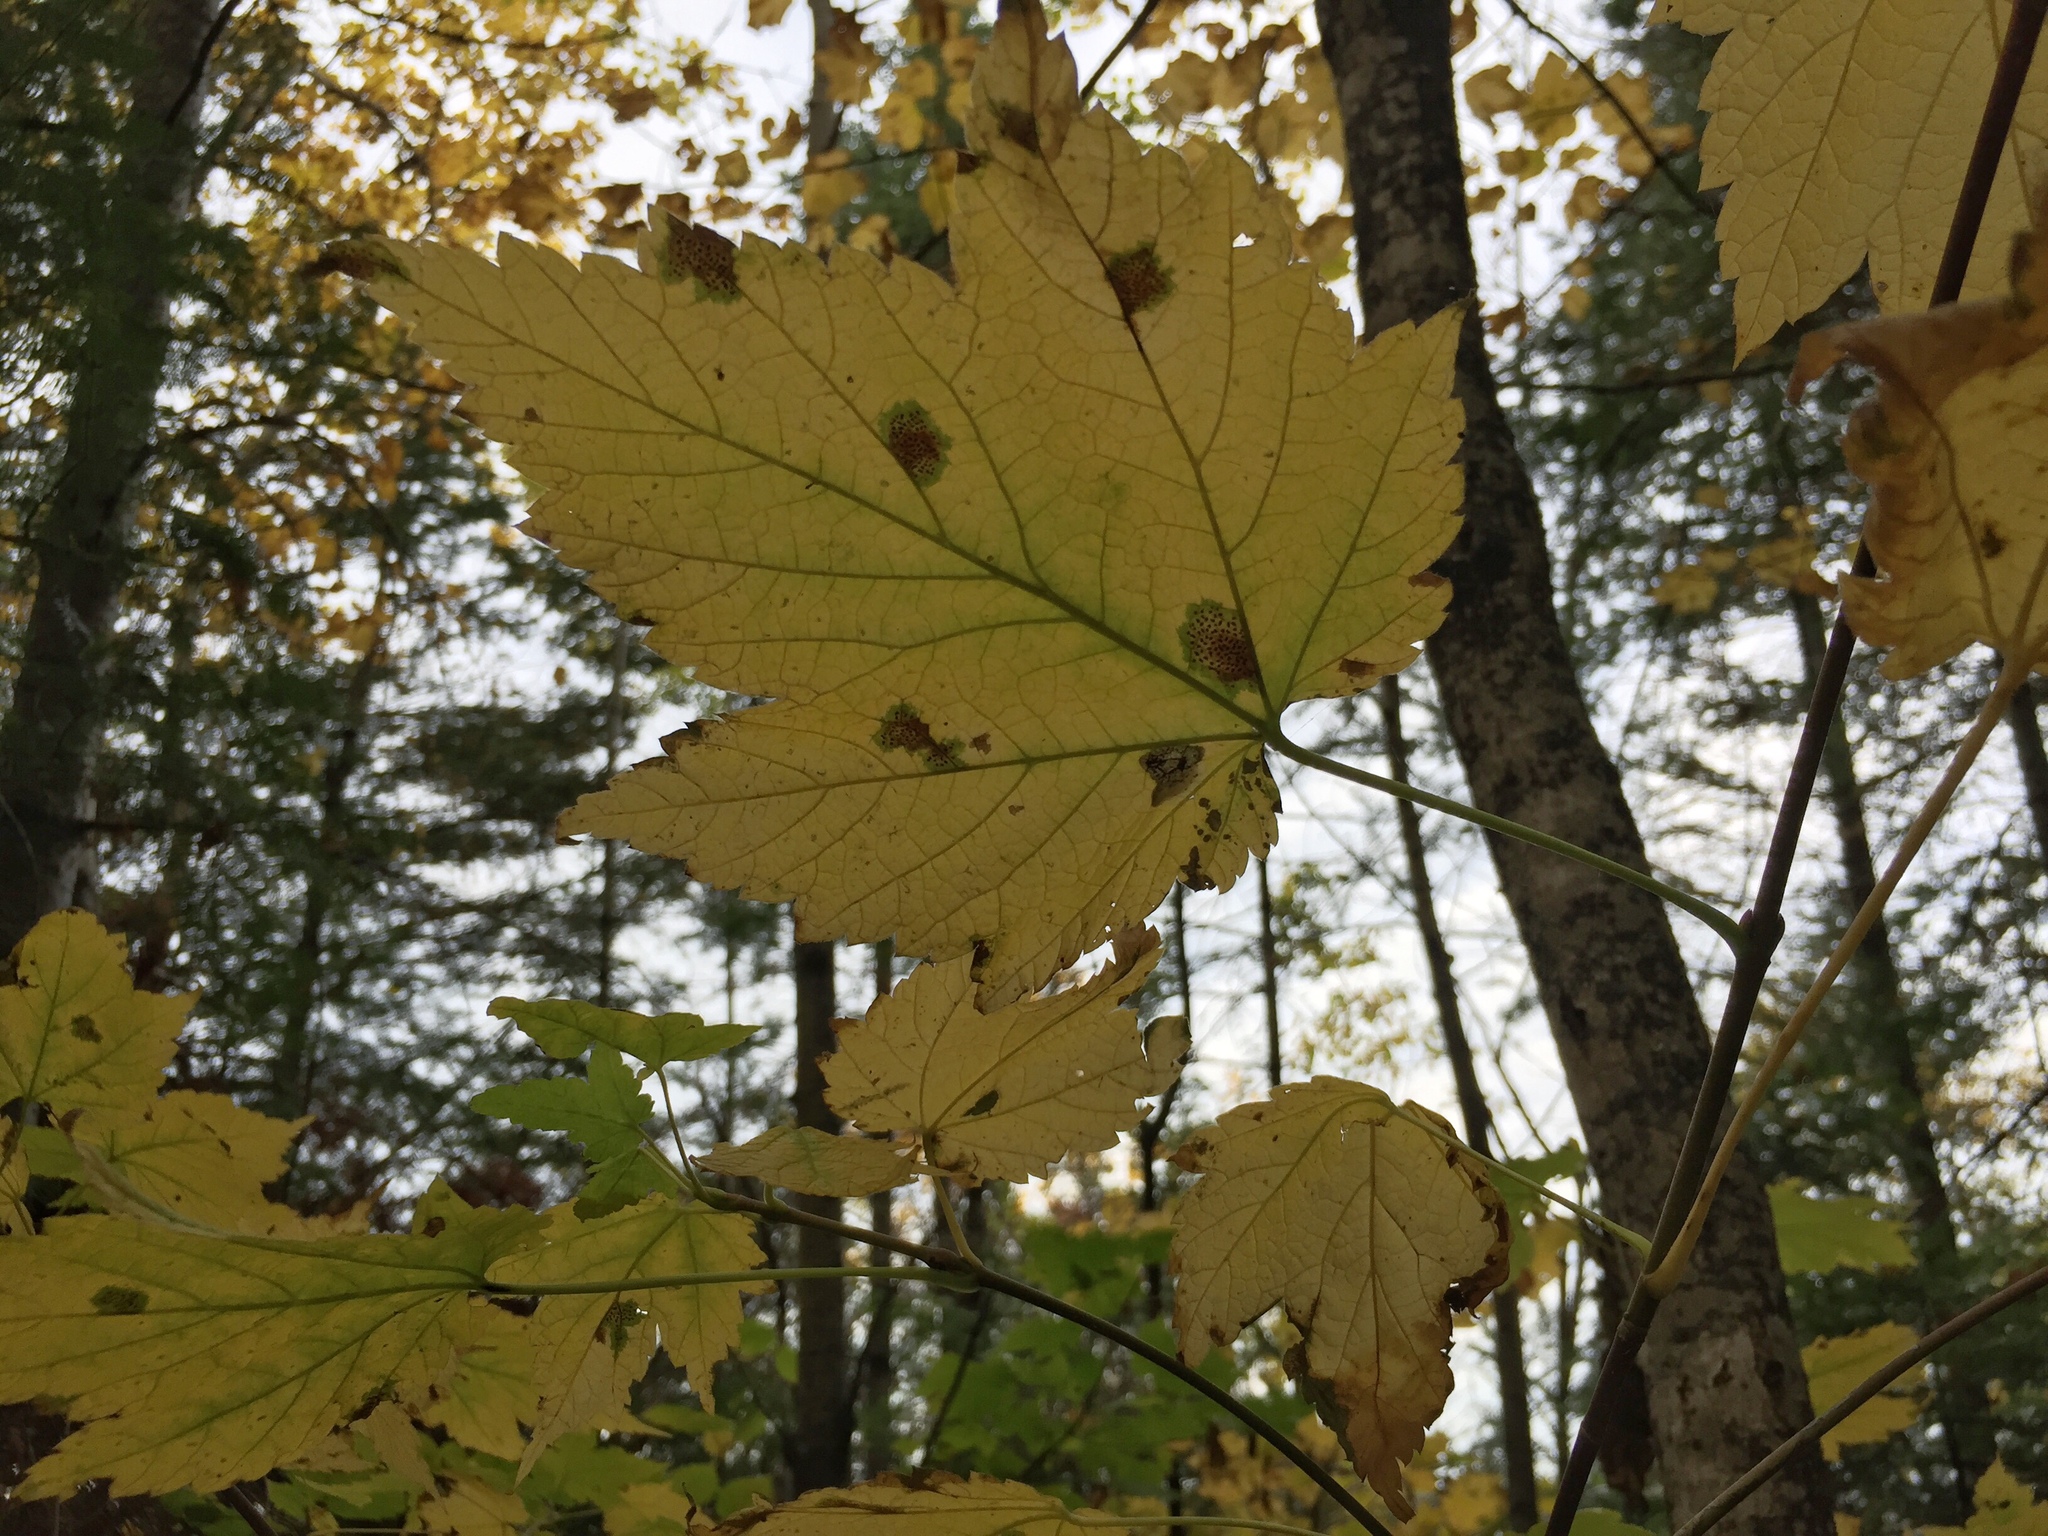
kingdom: Plantae
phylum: Tracheophyta
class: Magnoliopsida
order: Sapindales
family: Sapindaceae
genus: Acer
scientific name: Acer spicatum
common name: Mountain maple
